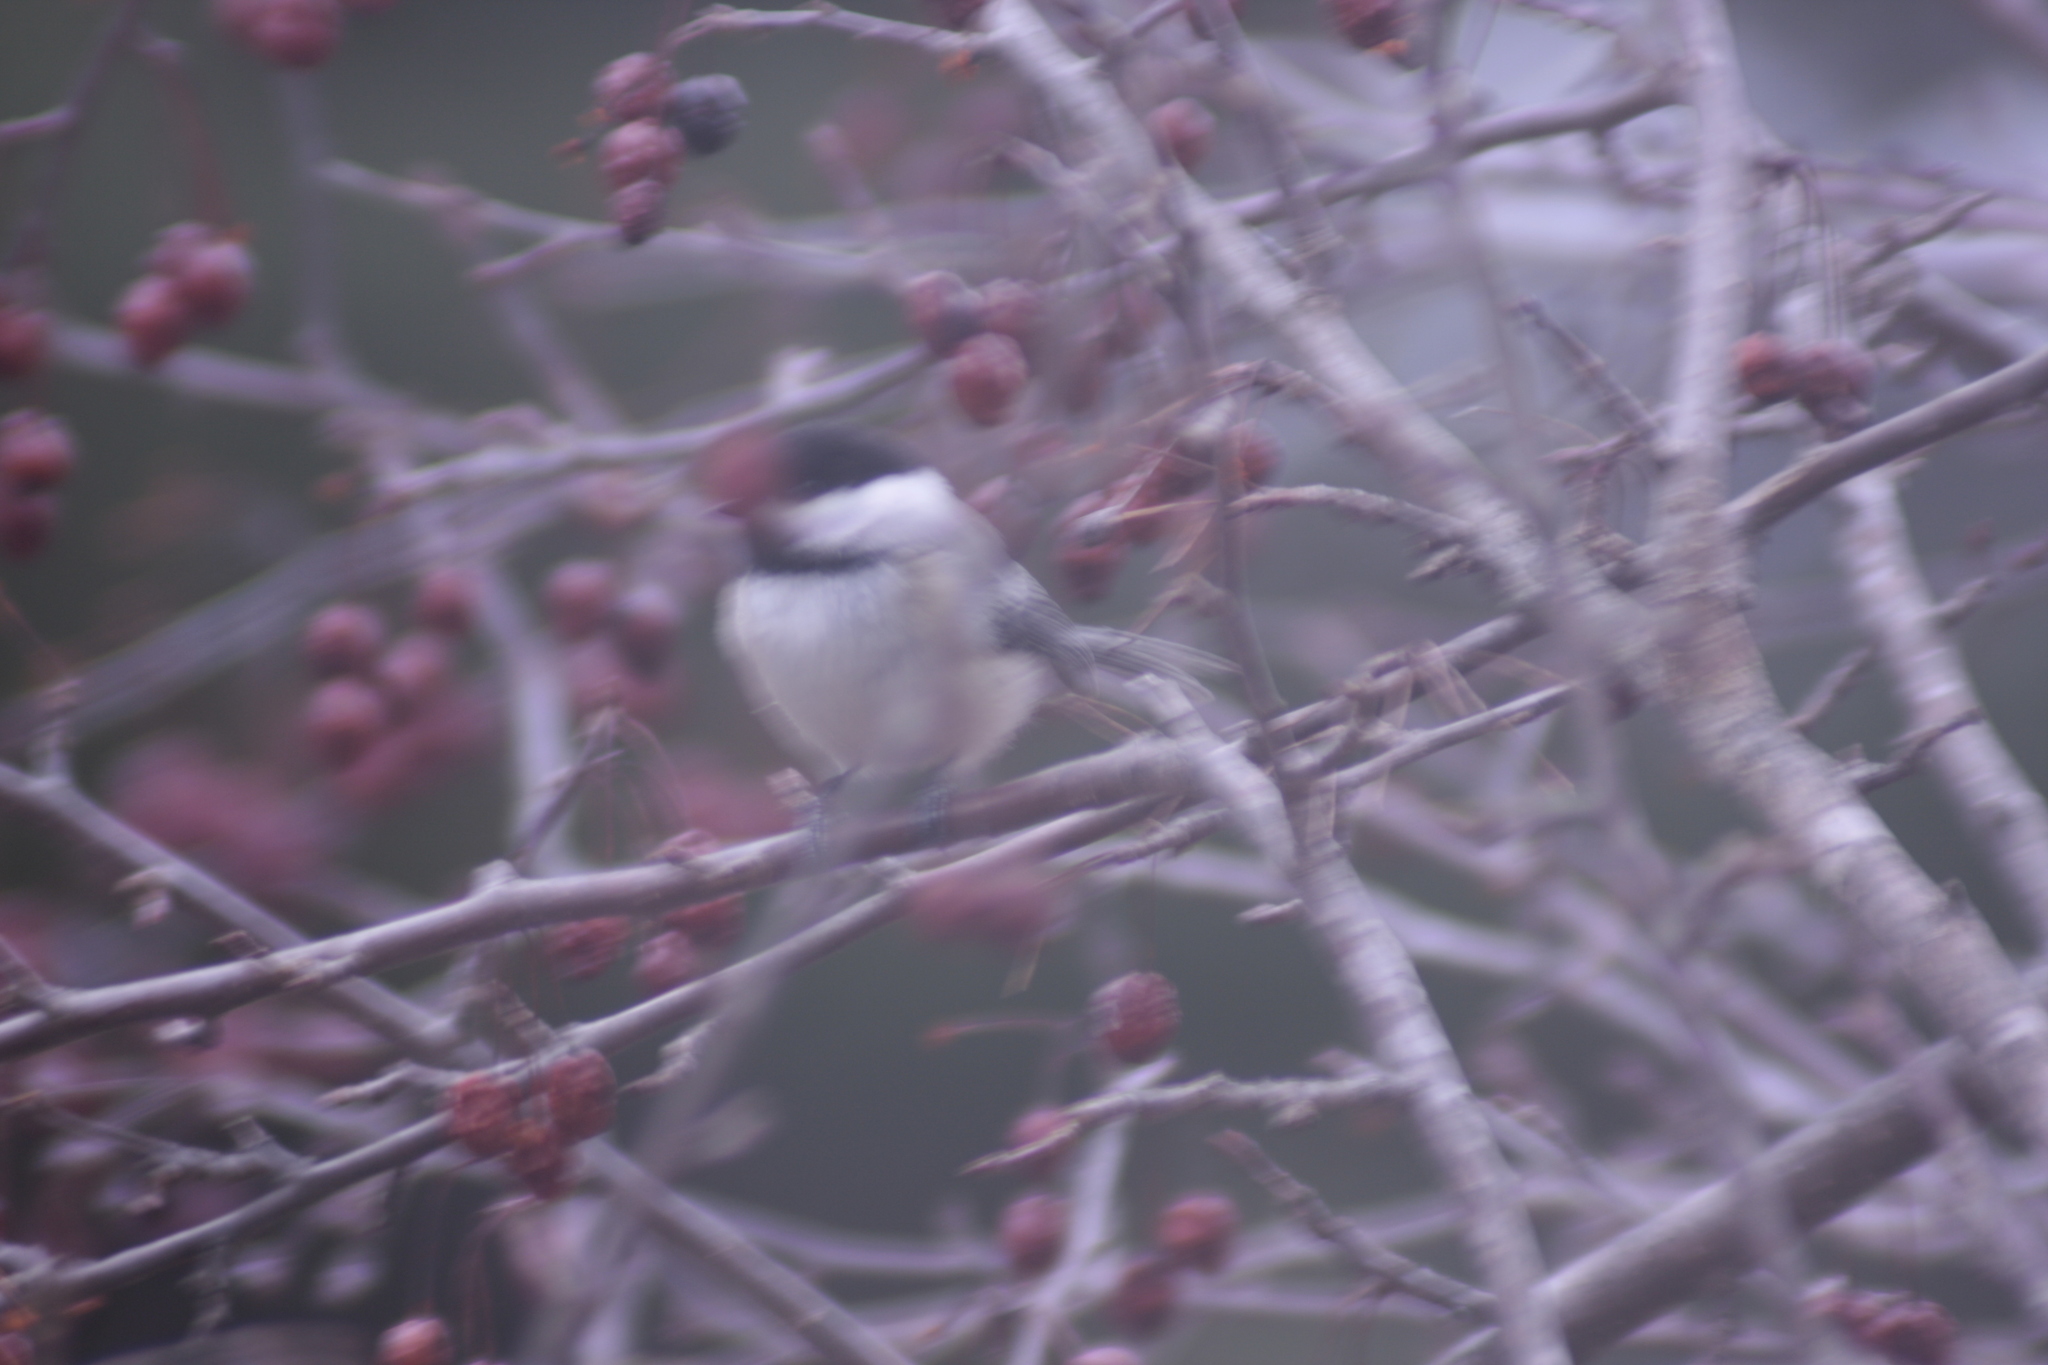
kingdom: Animalia
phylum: Chordata
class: Aves
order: Passeriformes
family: Paridae
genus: Poecile
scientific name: Poecile atricapillus
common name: Black-capped chickadee
